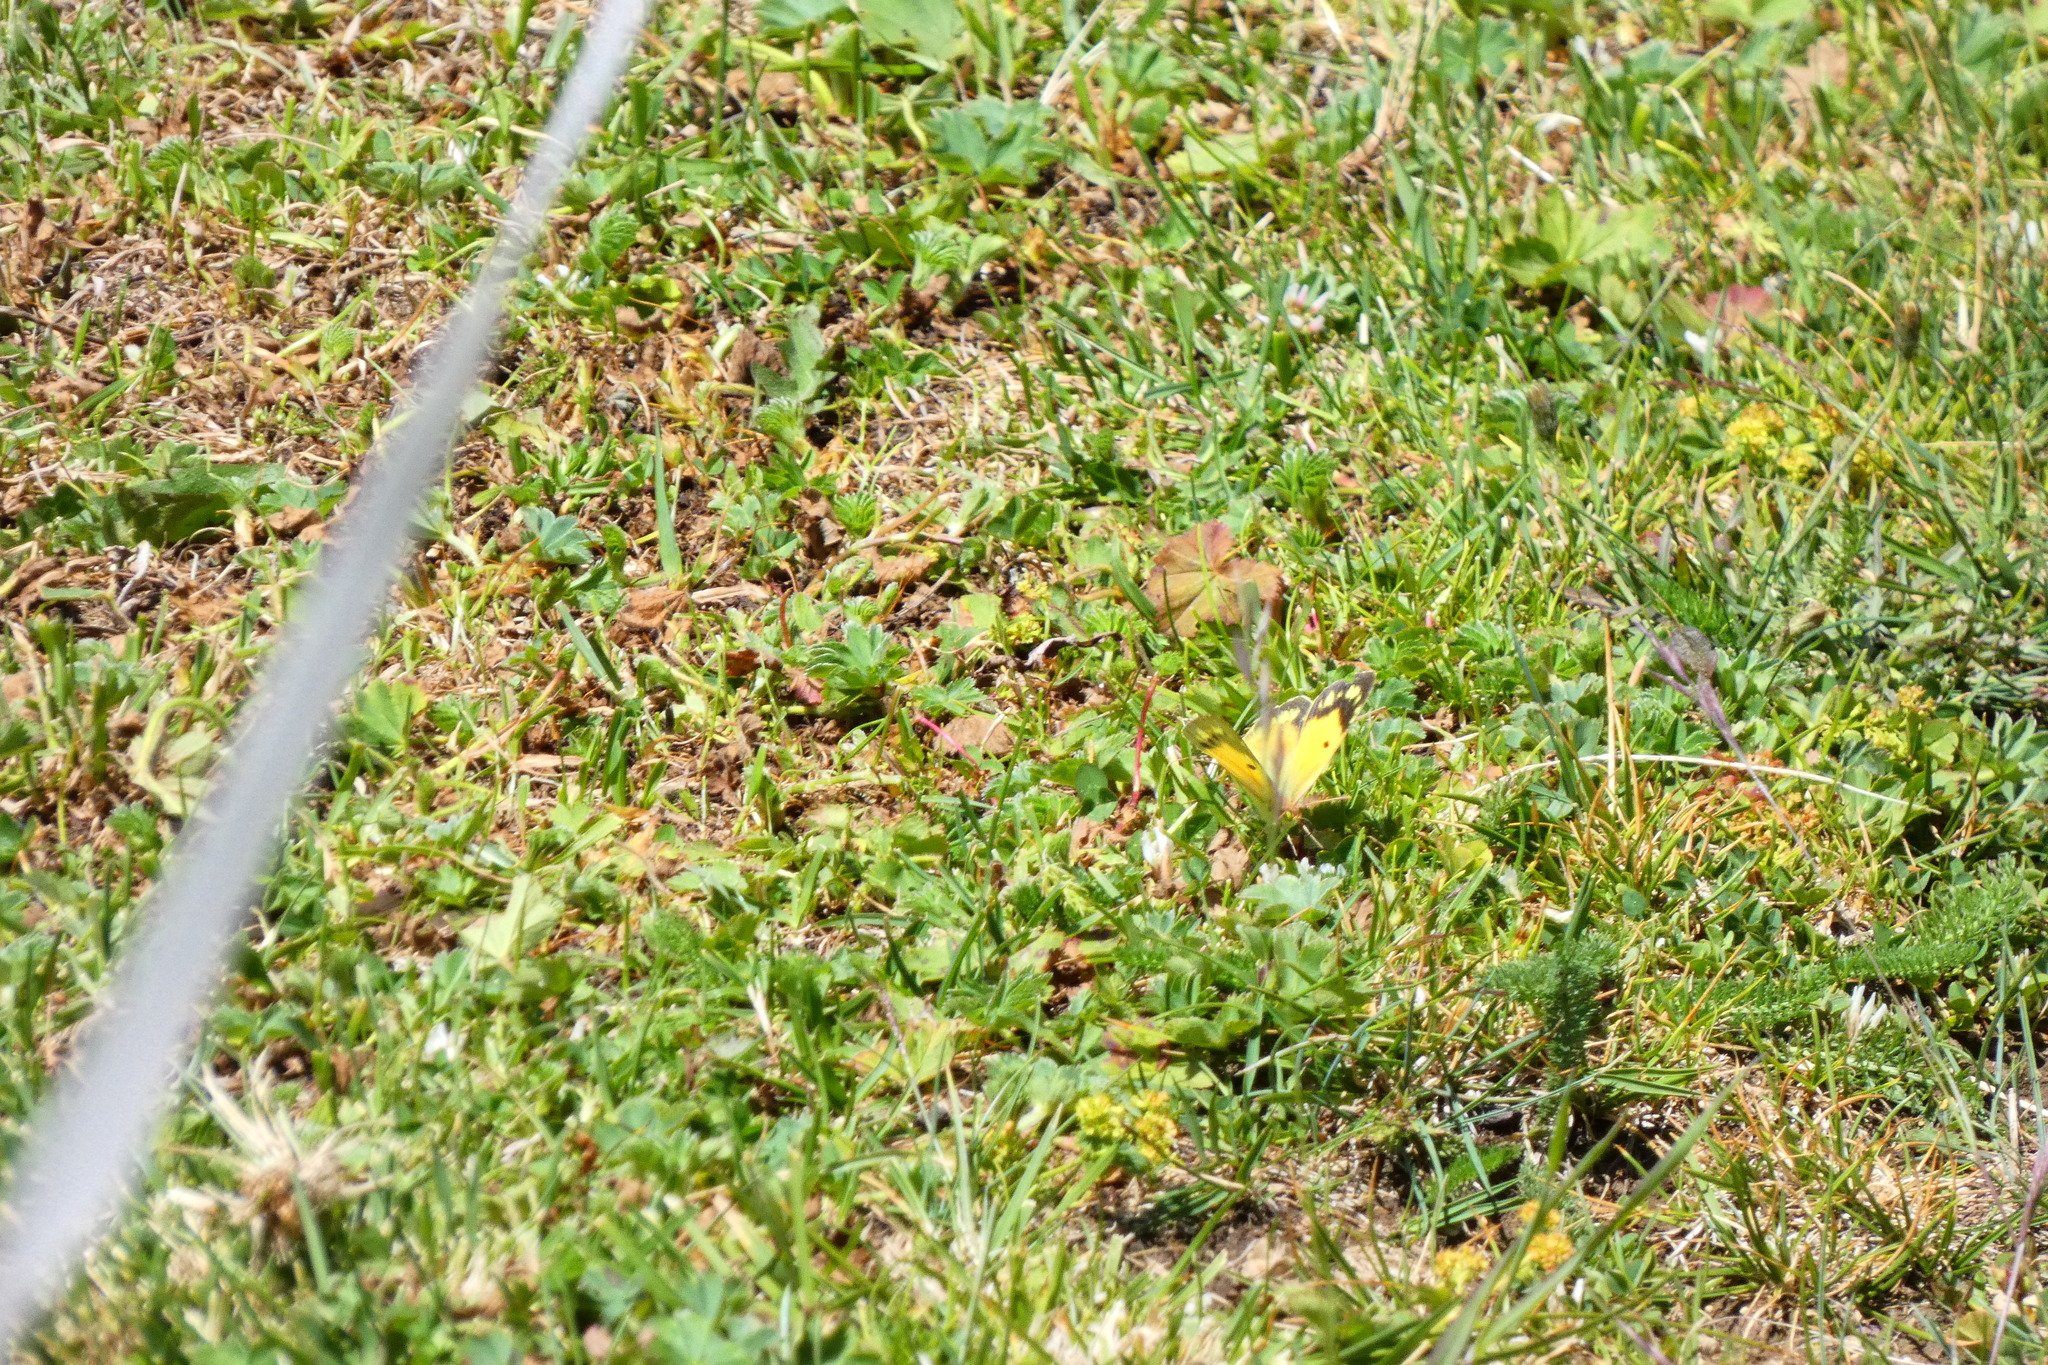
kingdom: Animalia
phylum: Arthropoda
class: Insecta
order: Lepidoptera
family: Pieridae
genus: Colias
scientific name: Colias croceus
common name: Clouded yellow
